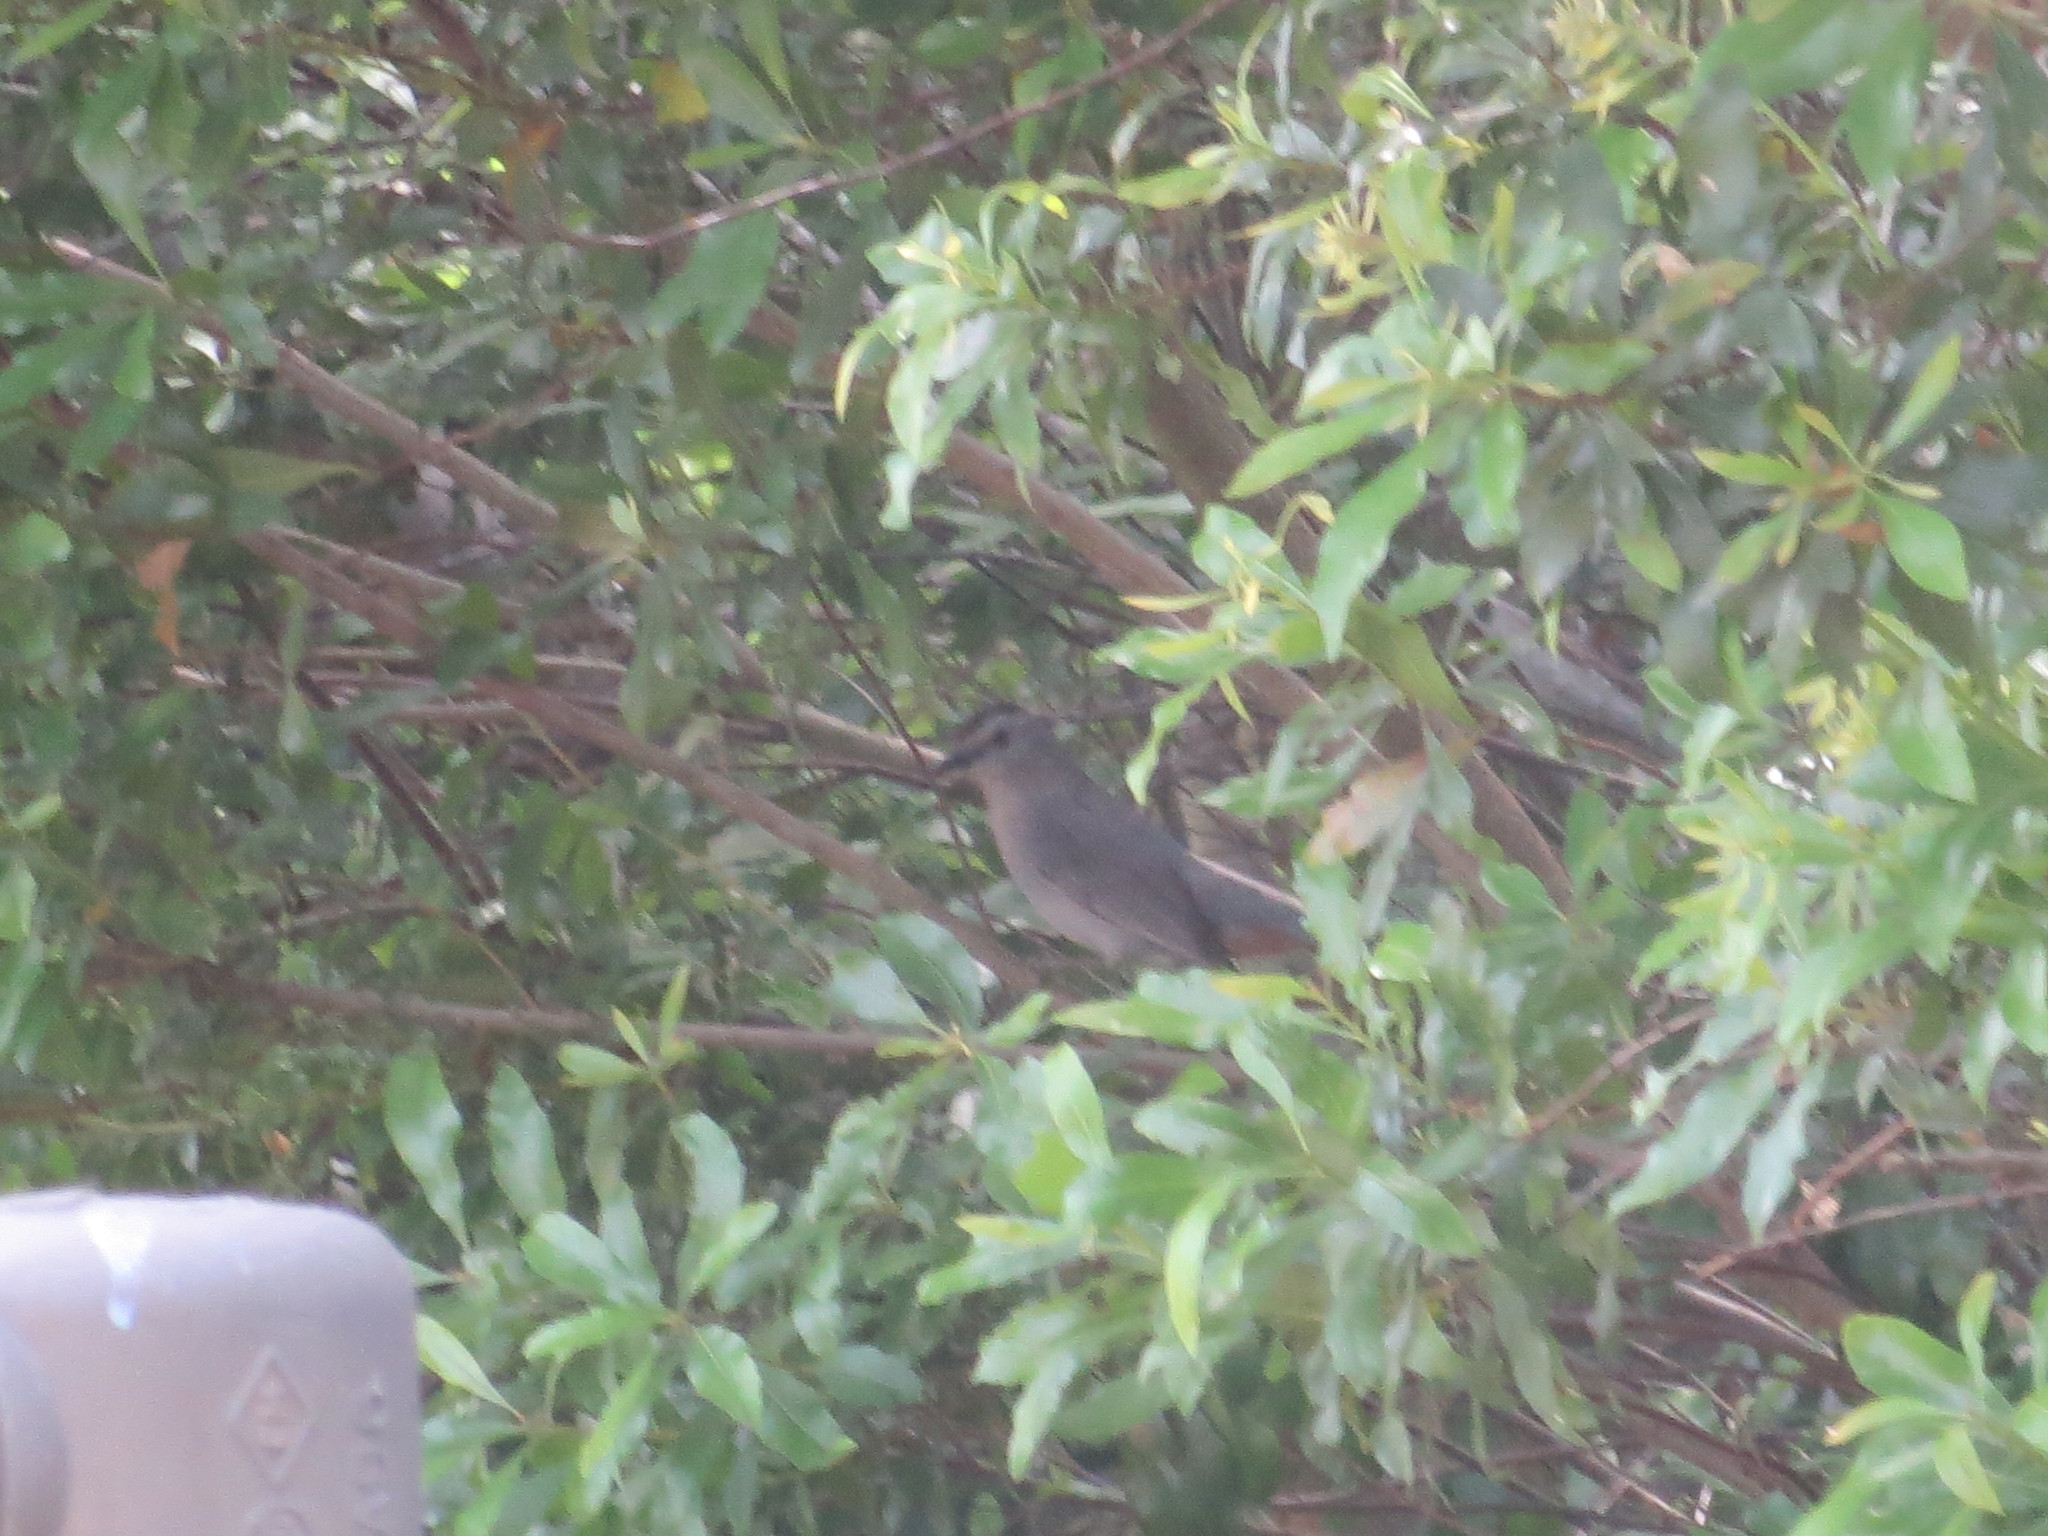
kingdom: Animalia
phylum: Chordata
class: Aves
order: Passeriformes
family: Mimidae
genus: Dumetella
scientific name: Dumetella carolinensis
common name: Gray catbird
